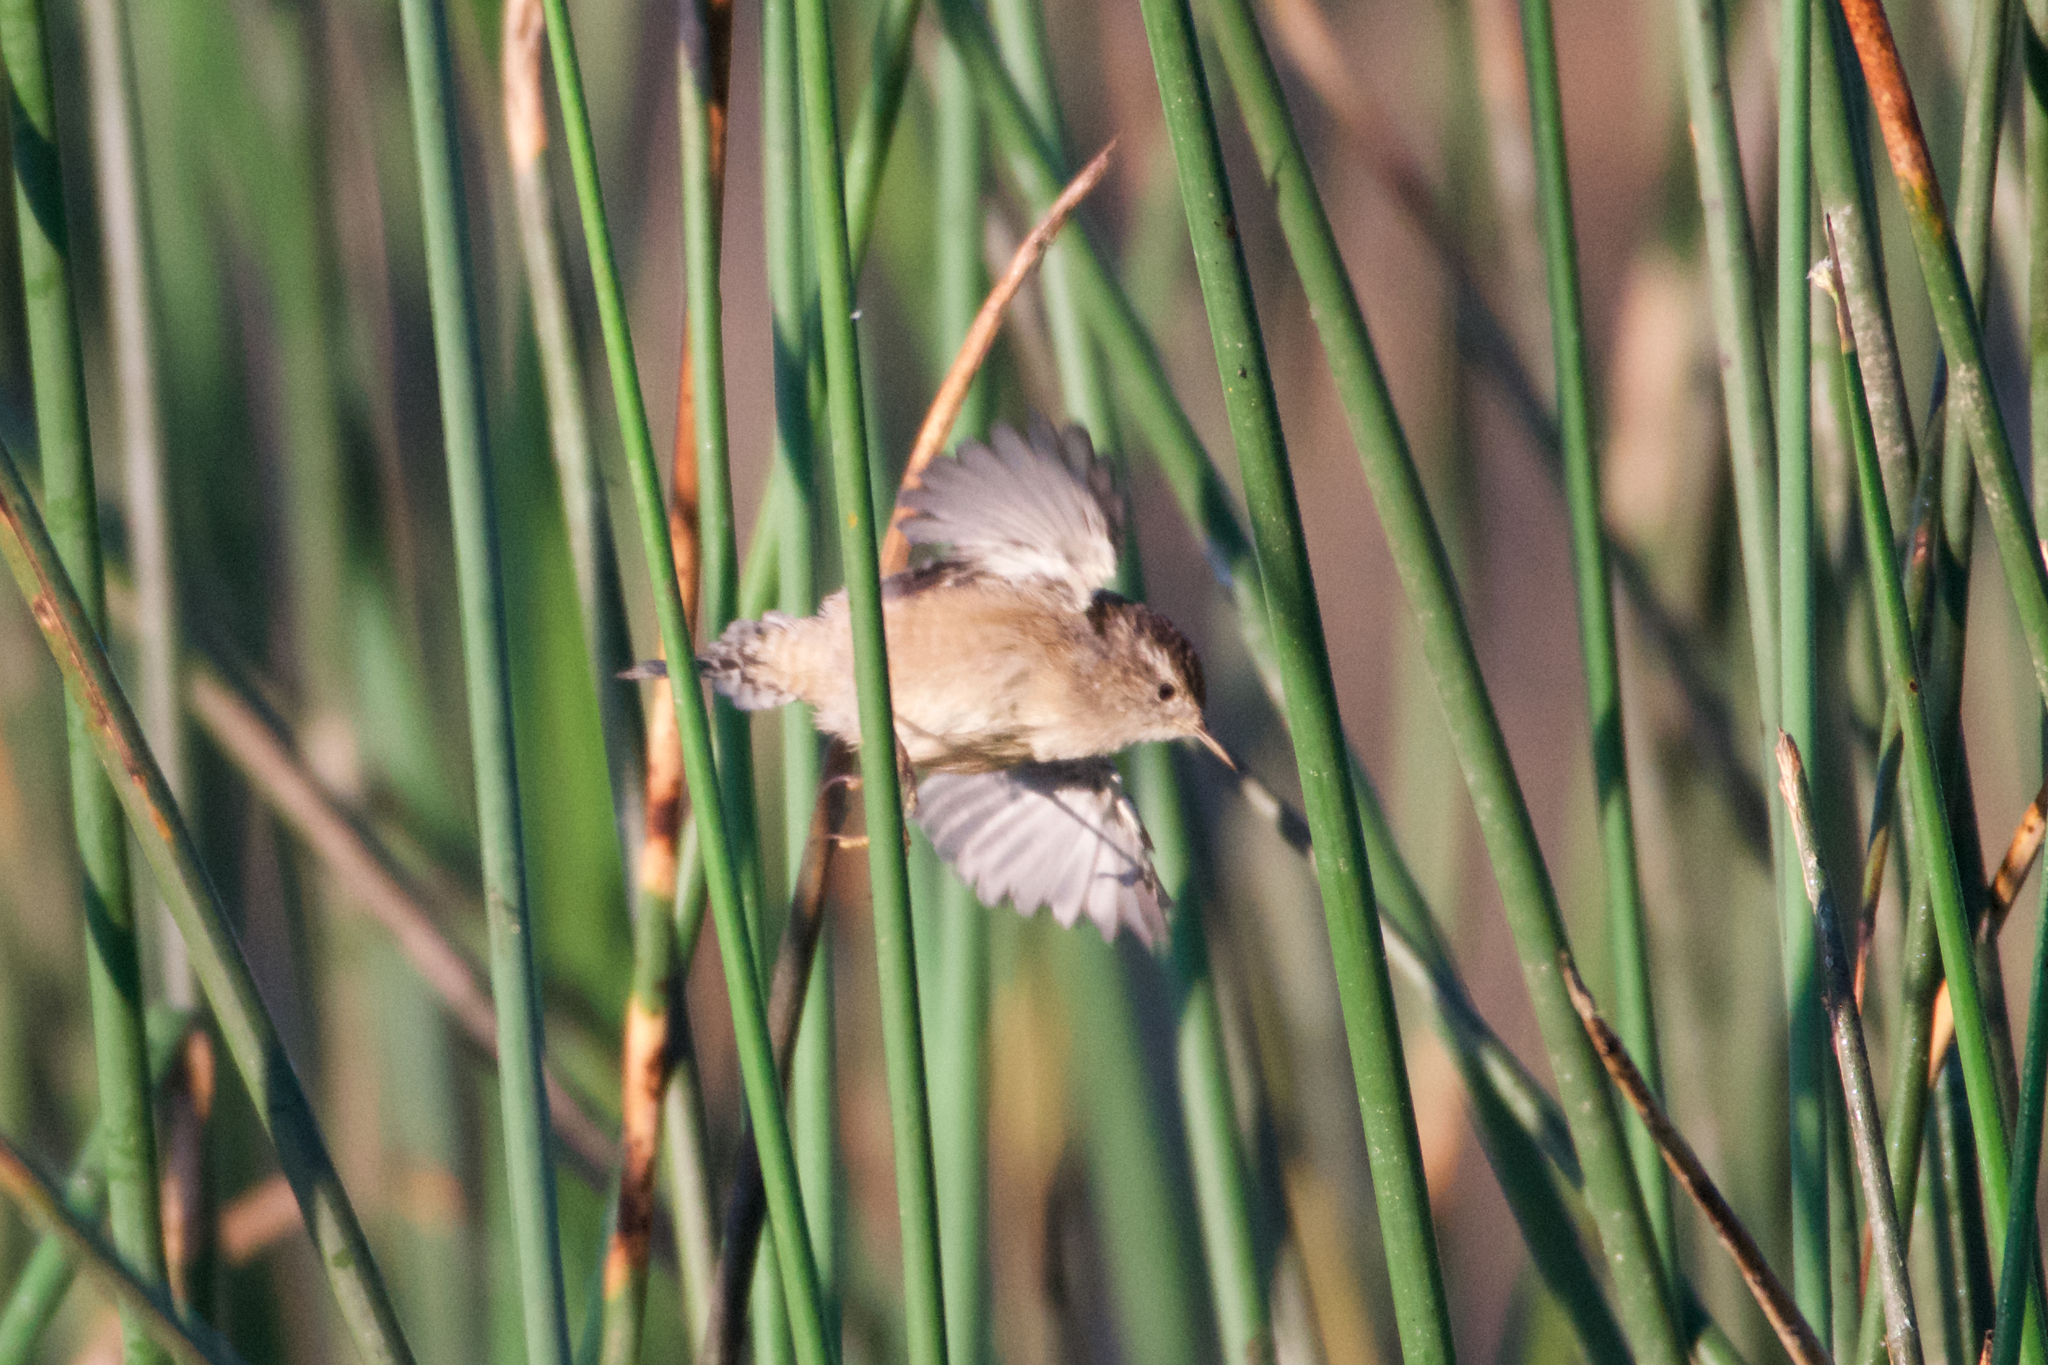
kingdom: Animalia
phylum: Chordata
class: Aves
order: Passeriformes
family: Troglodytidae
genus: Cistothorus
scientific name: Cistothorus palustris
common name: Marsh wren
